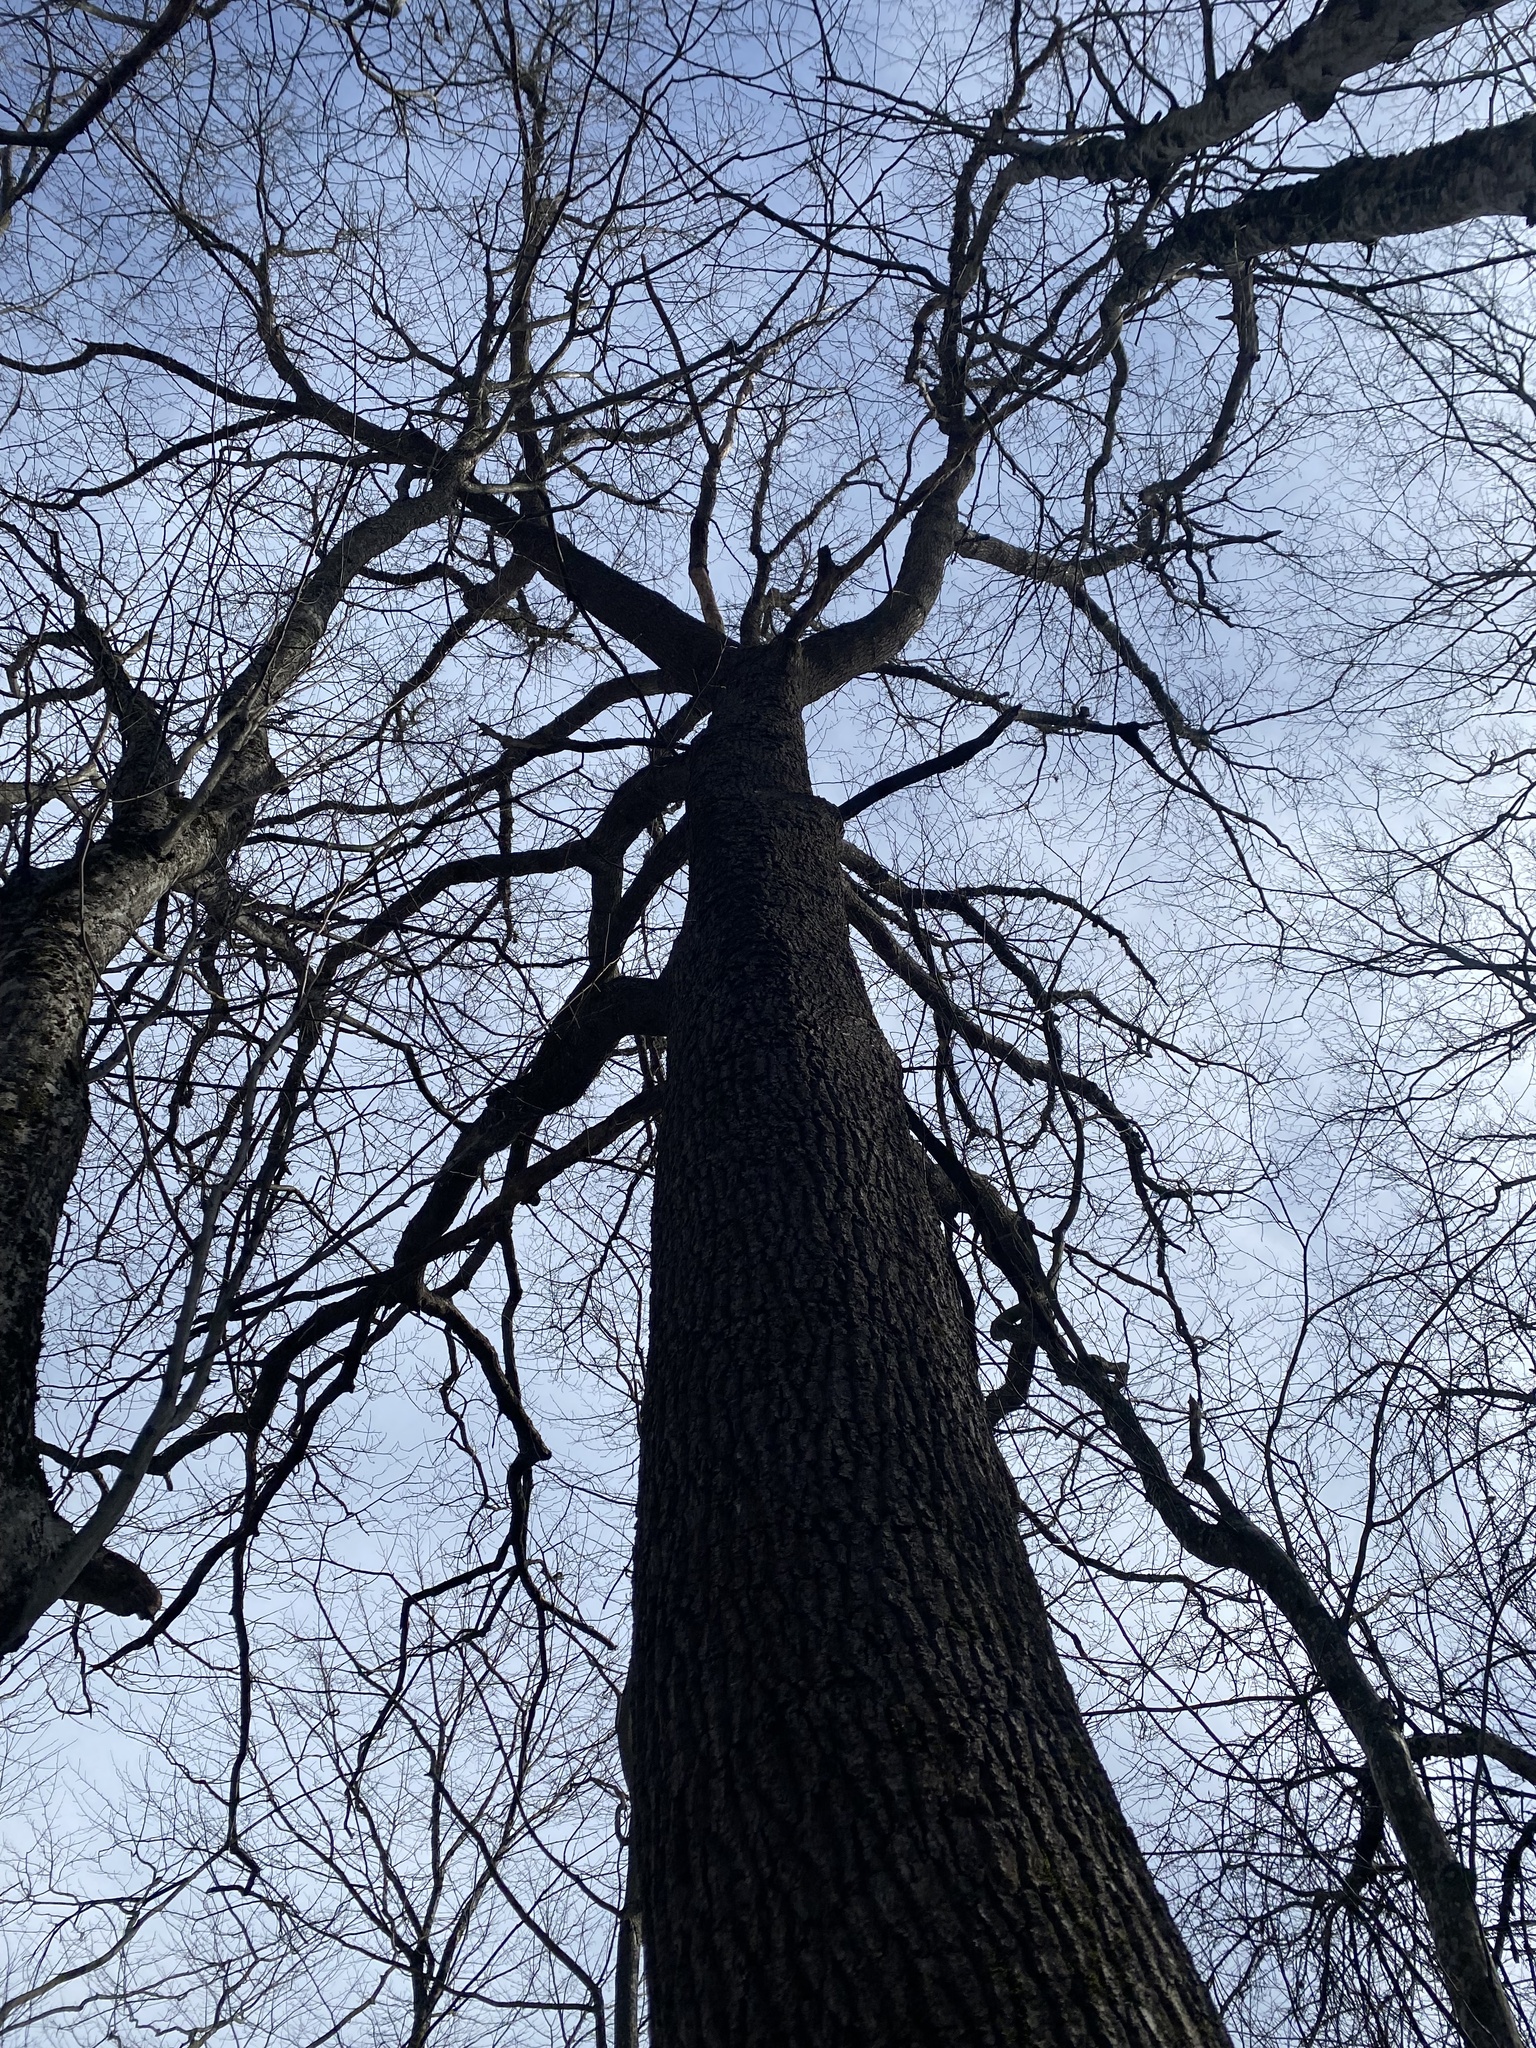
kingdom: Plantae
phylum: Tracheophyta
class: Magnoliopsida
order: Fagales
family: Fagaceae
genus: Quercus
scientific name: Quercus robur
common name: Pedunculate oak
